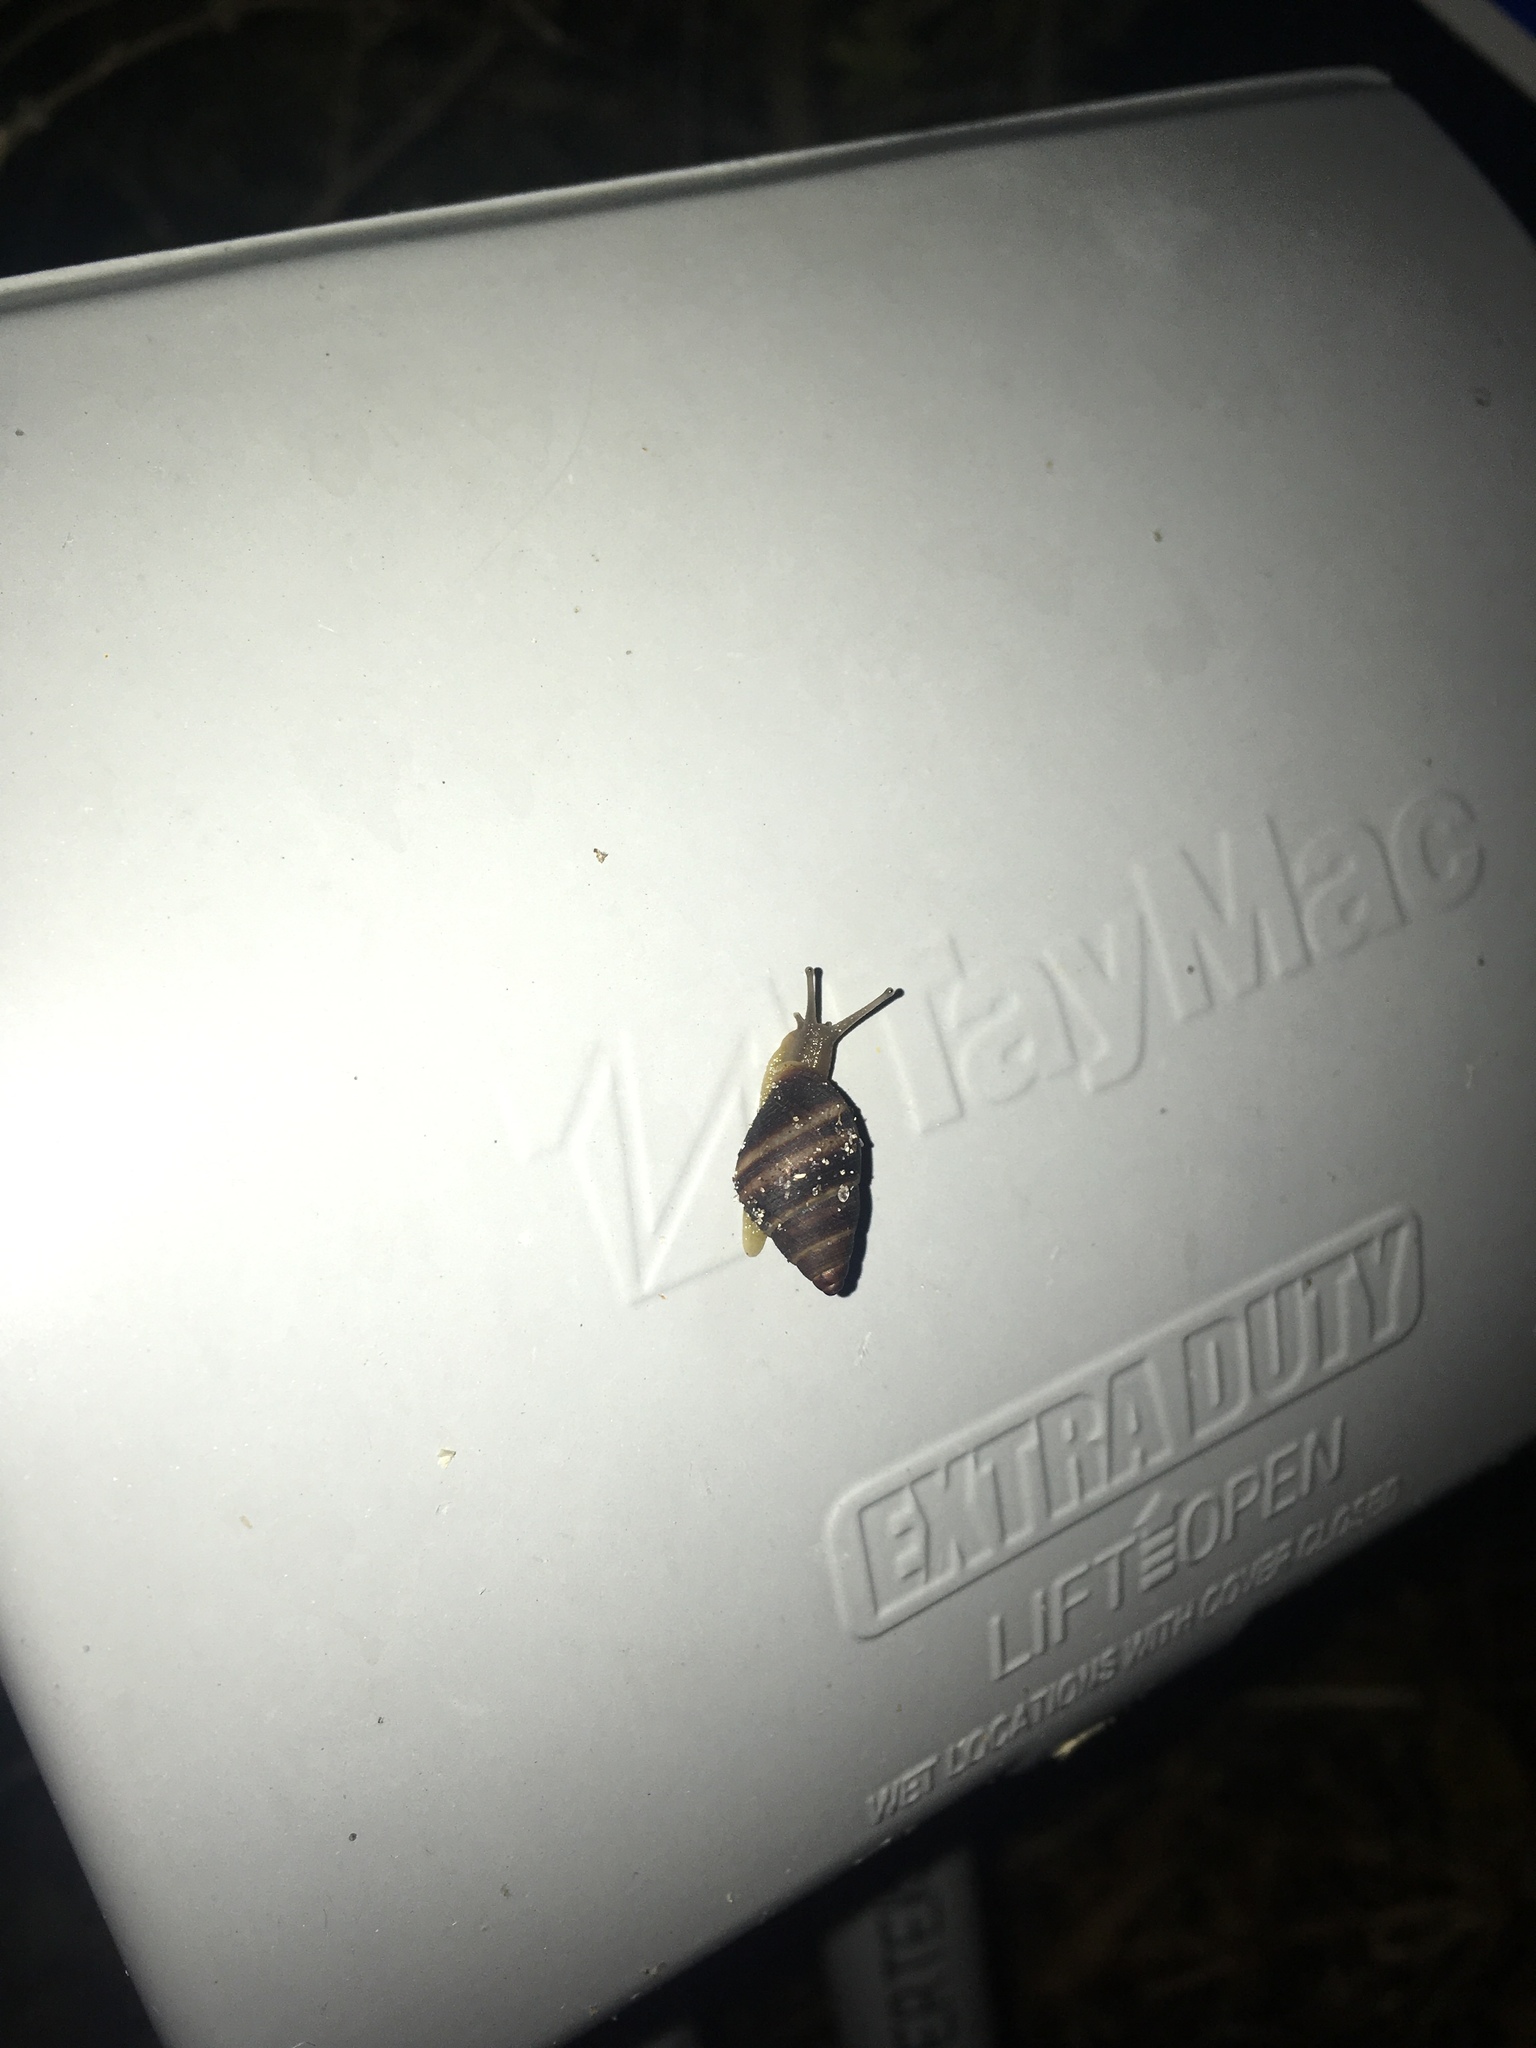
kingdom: Animalia
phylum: Mollusca
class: Gastropoda
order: Stylommatophora
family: Bulimulidae
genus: Bulimulus
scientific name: Bulimulus guadalupensis
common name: West indian bulimulus
